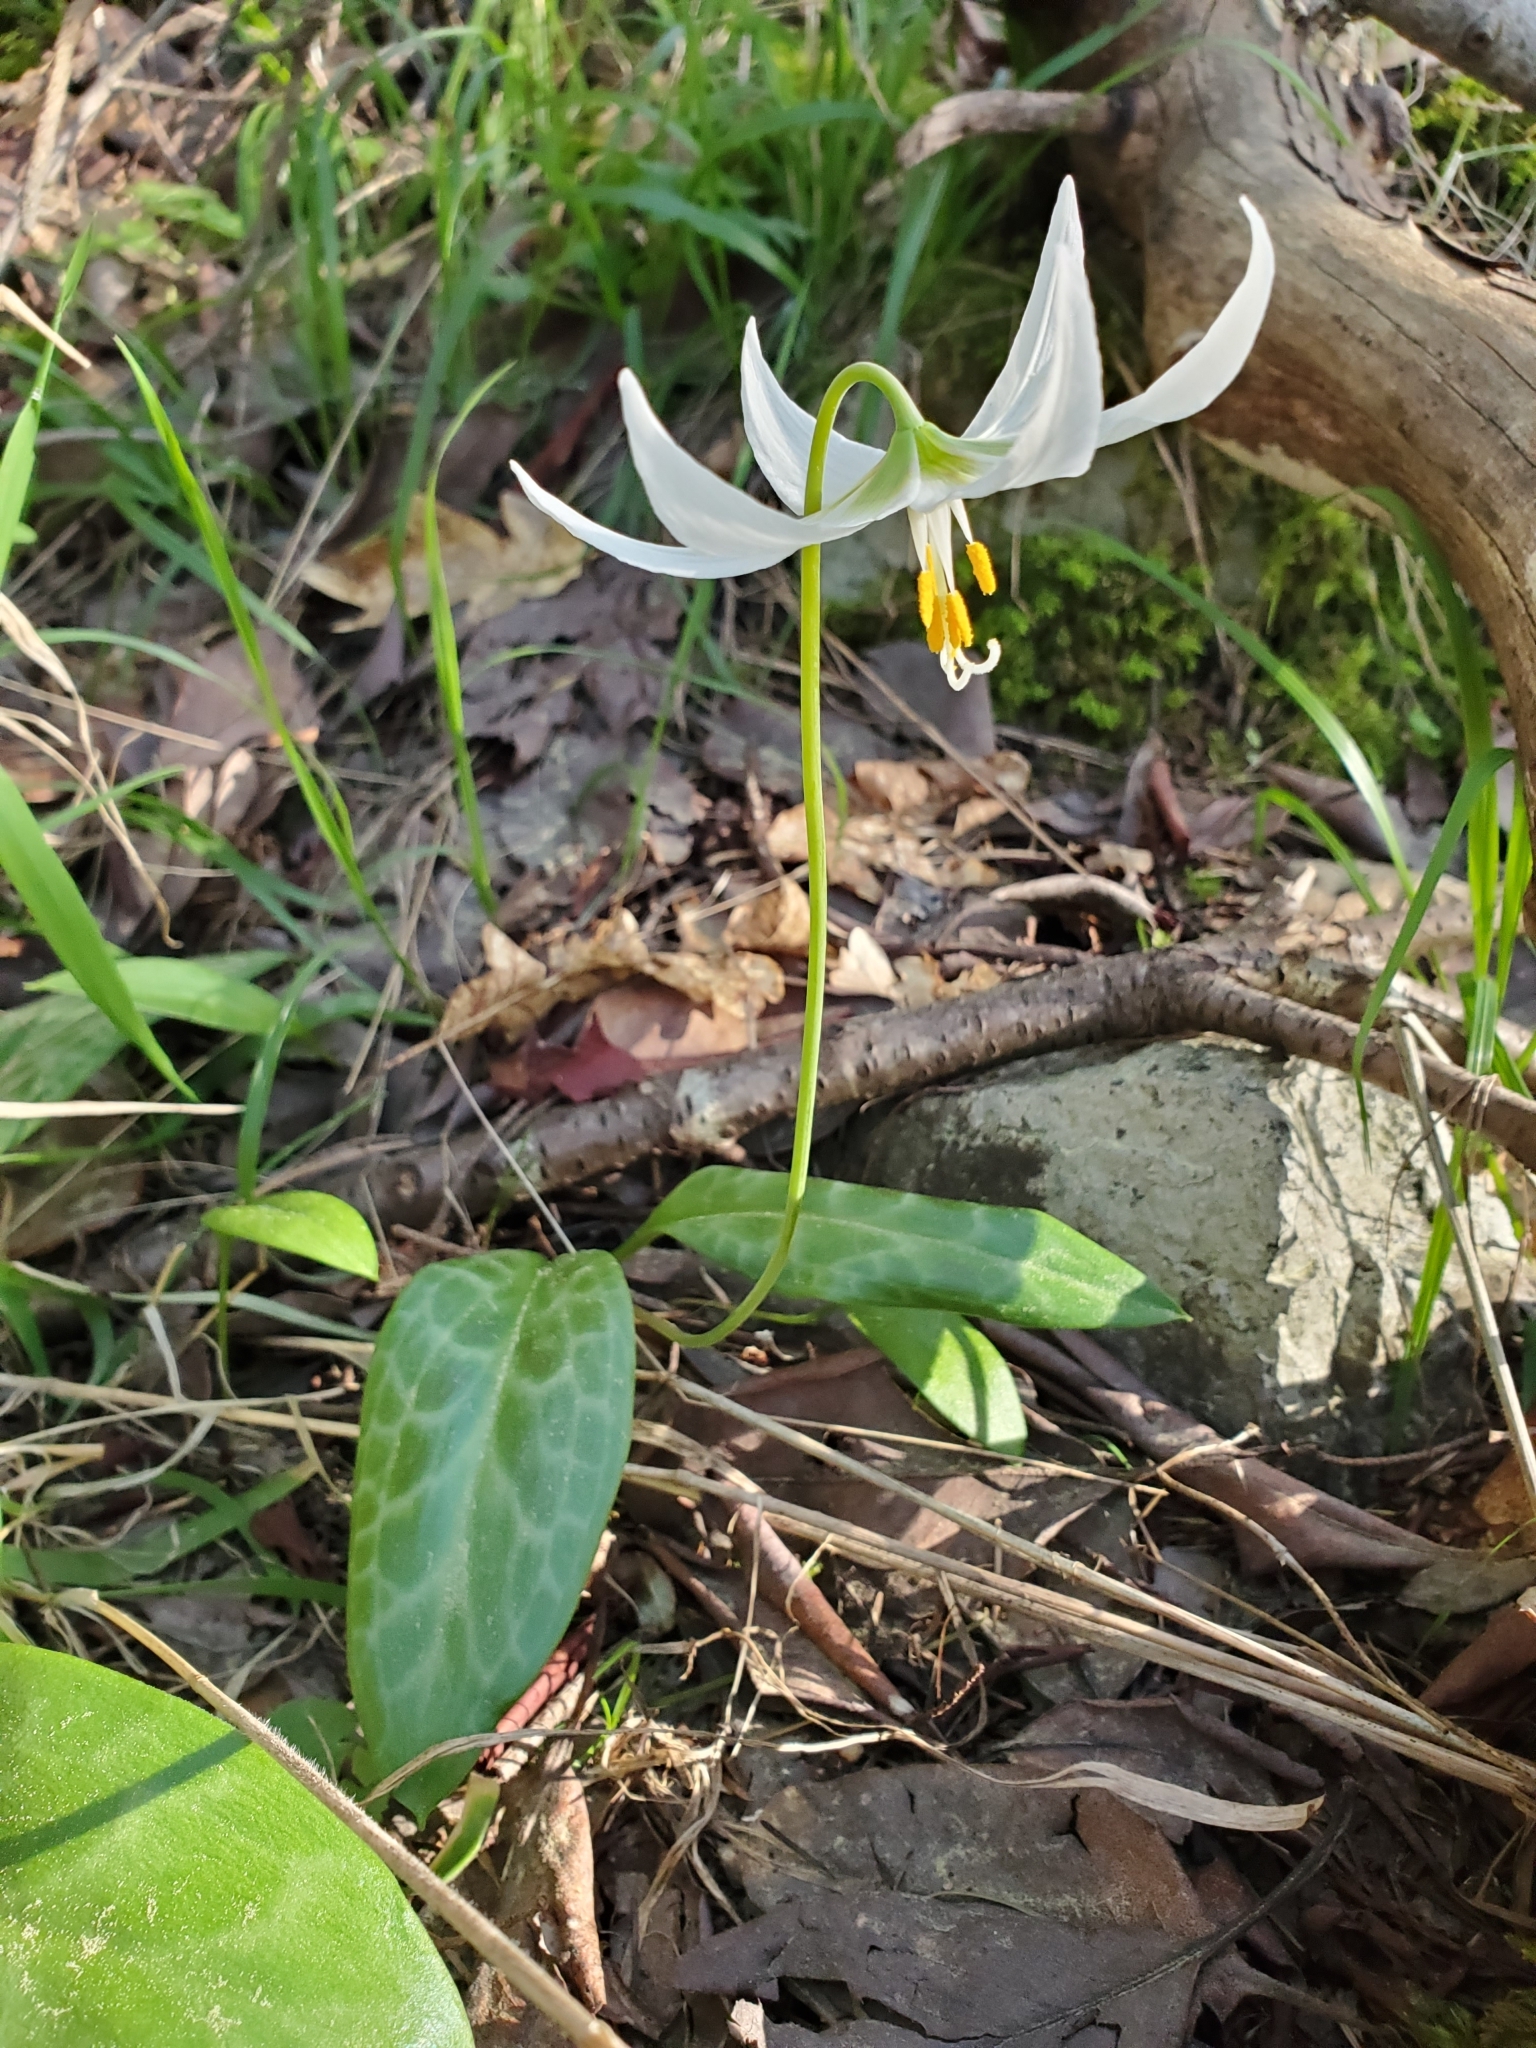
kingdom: Plantae
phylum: Tracheophyta
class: Liliopsida
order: Liliales
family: Liliaceae
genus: Erythronium
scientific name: Erythronium oregonum
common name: Giant adder's-tongue
